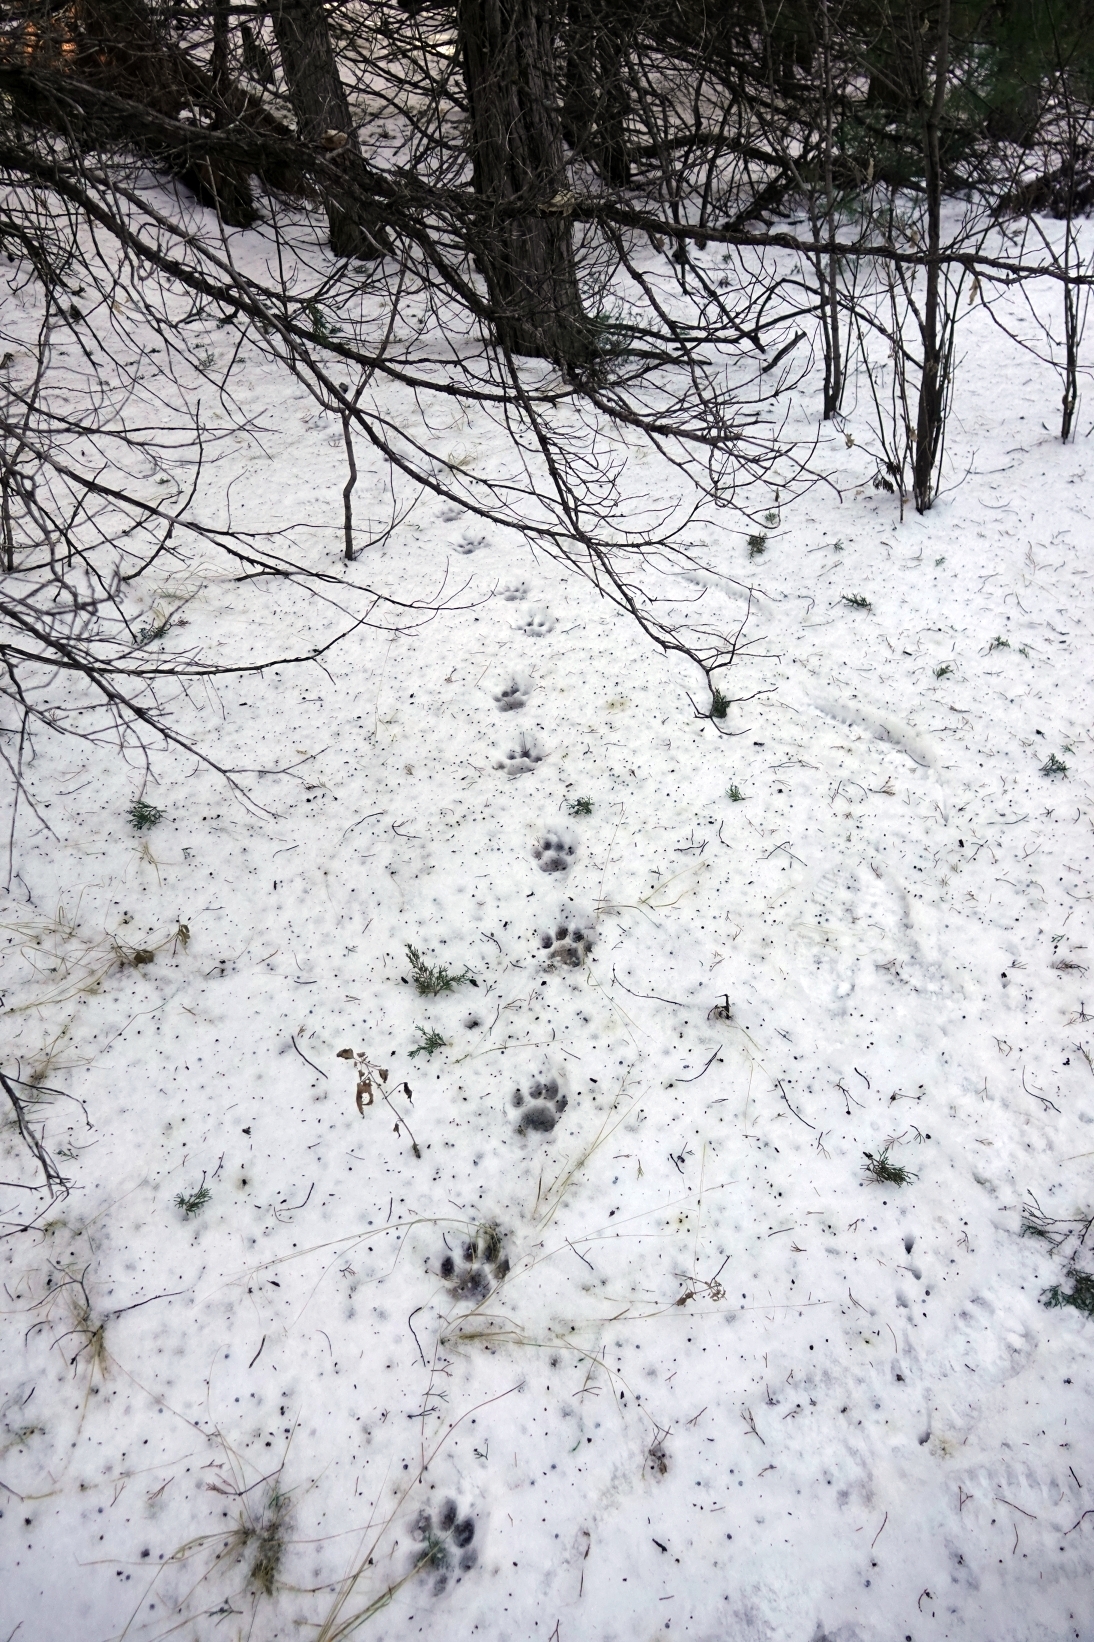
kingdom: Animalia
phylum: Chordata
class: Mammalia
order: Carnivora
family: Felidae
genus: Puma
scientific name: Puma concolor
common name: Puma
